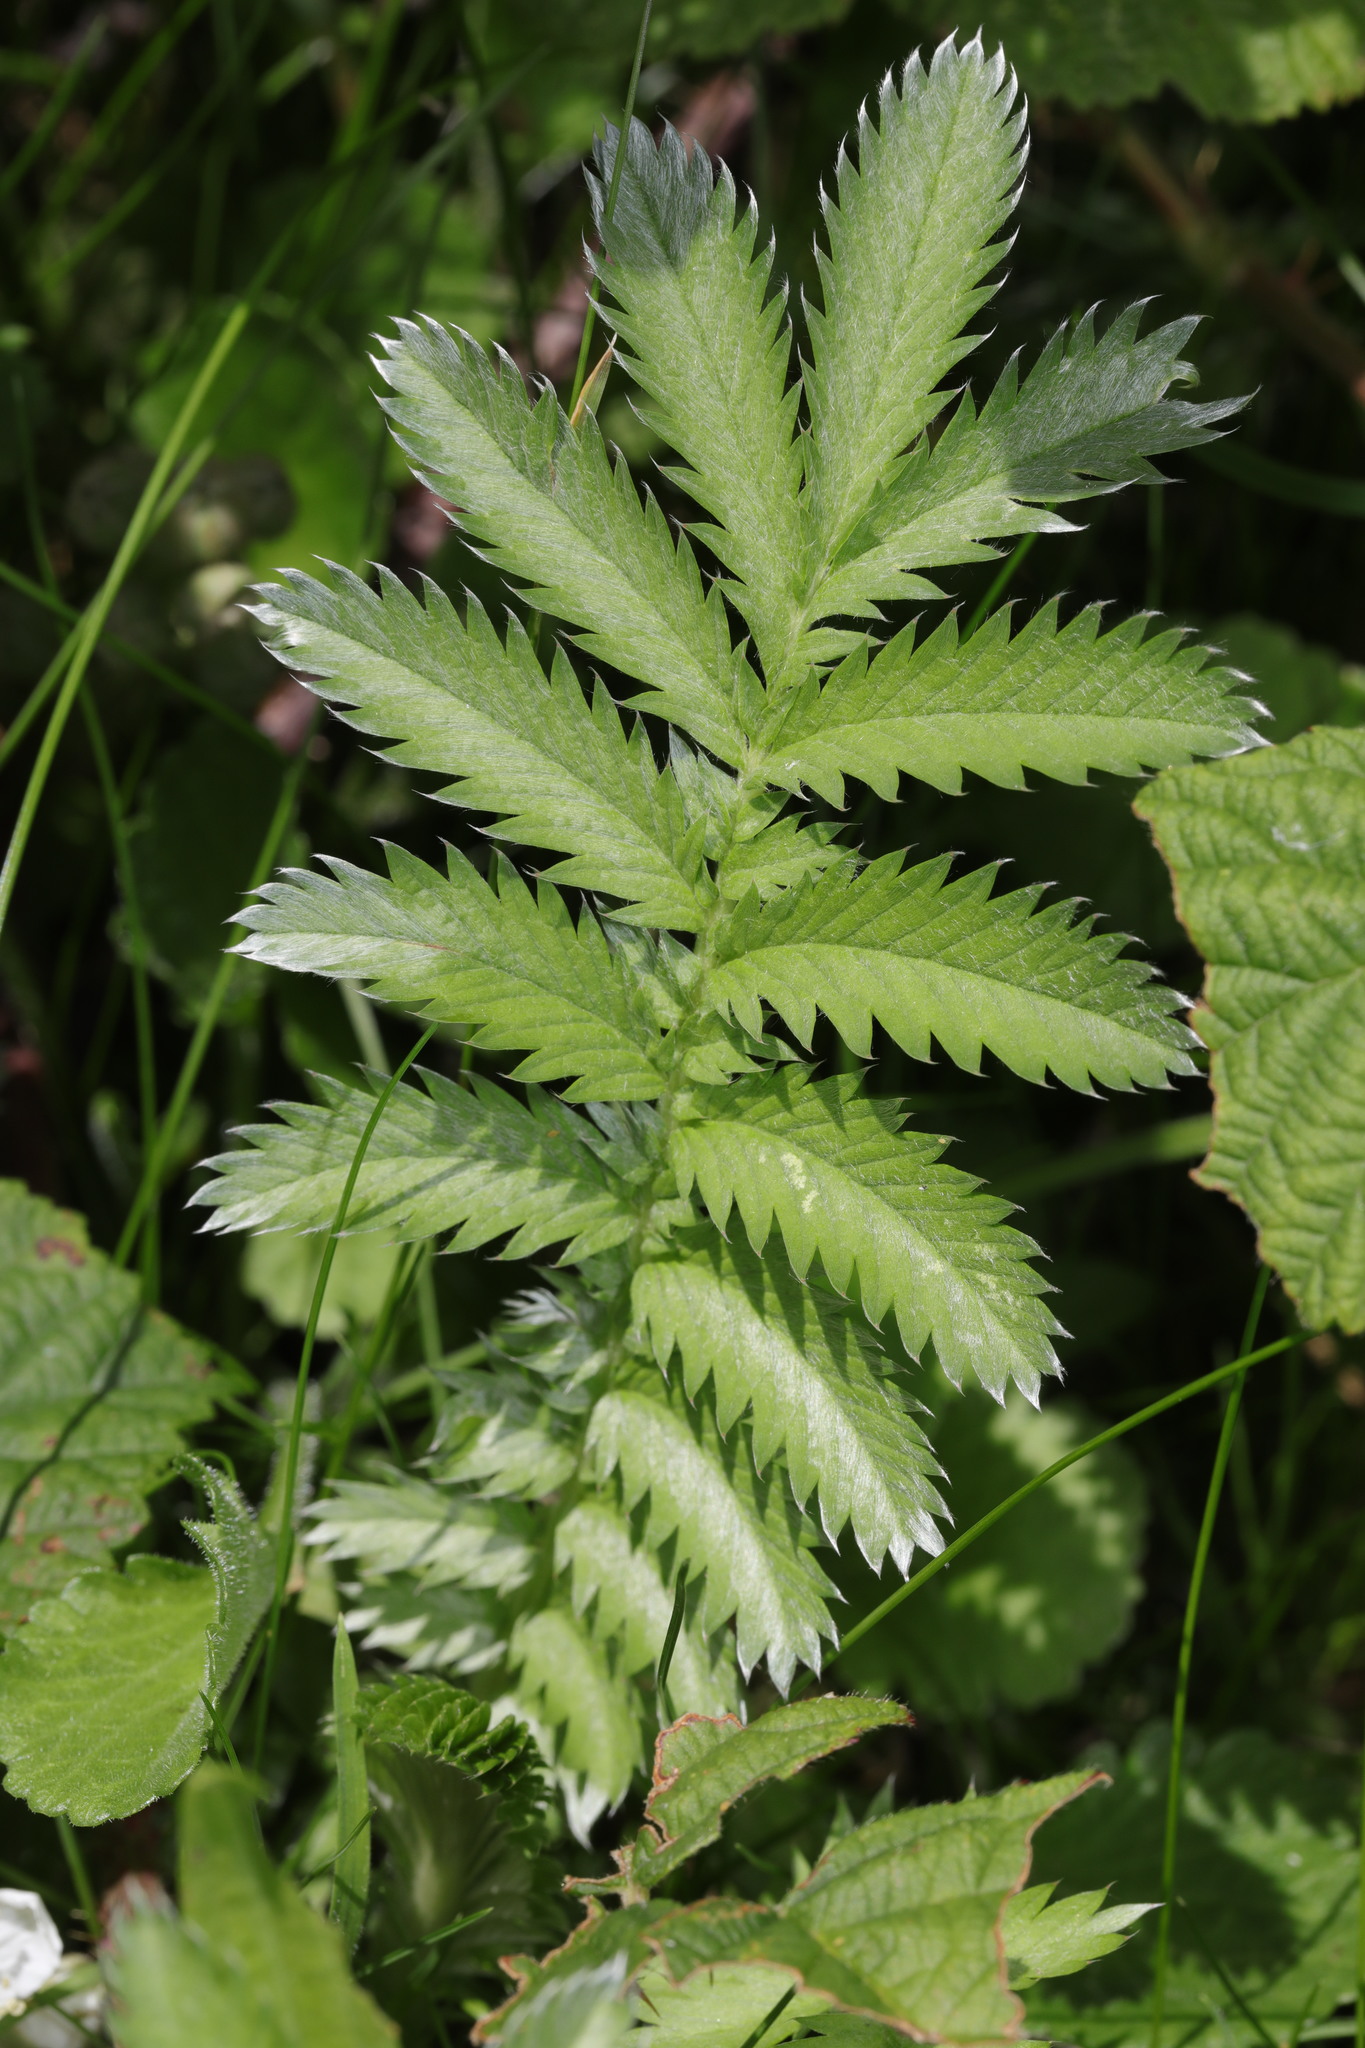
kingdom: Plantae
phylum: Tracheophyta
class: Magnoliopsida
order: Rosales
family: Rosaceae
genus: Argentina
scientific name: Argentina anserina
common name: Common silverweed
